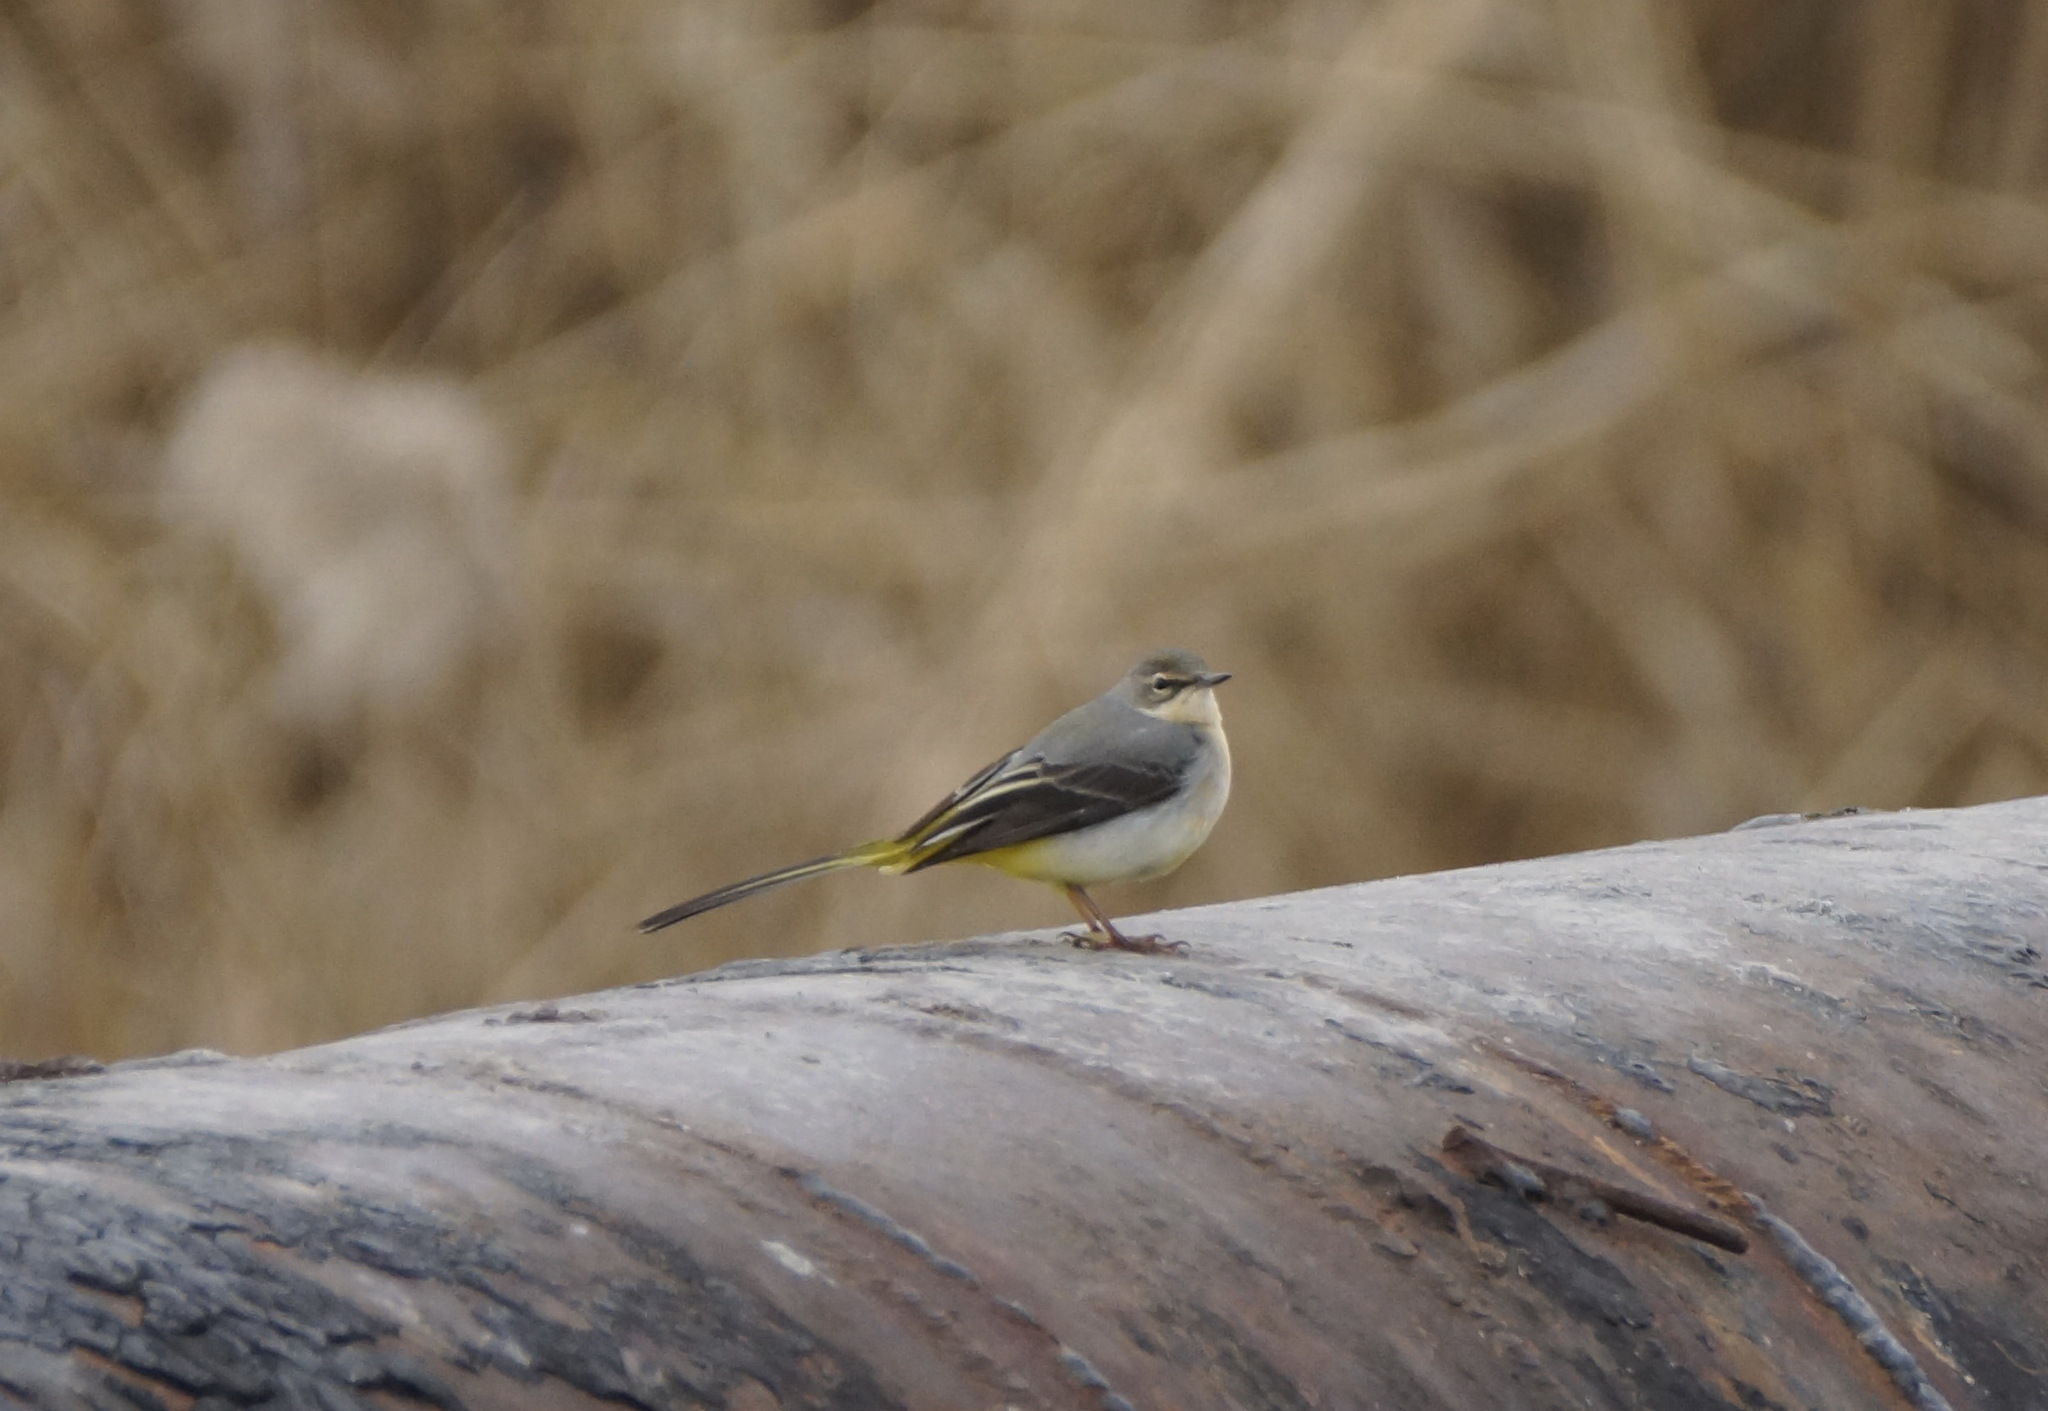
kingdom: Animalia
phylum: Chordata
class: Aves
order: Passeriformes
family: Motacillidae
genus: Motacilla
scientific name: Motacilla cinerea
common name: Grey wagtail
